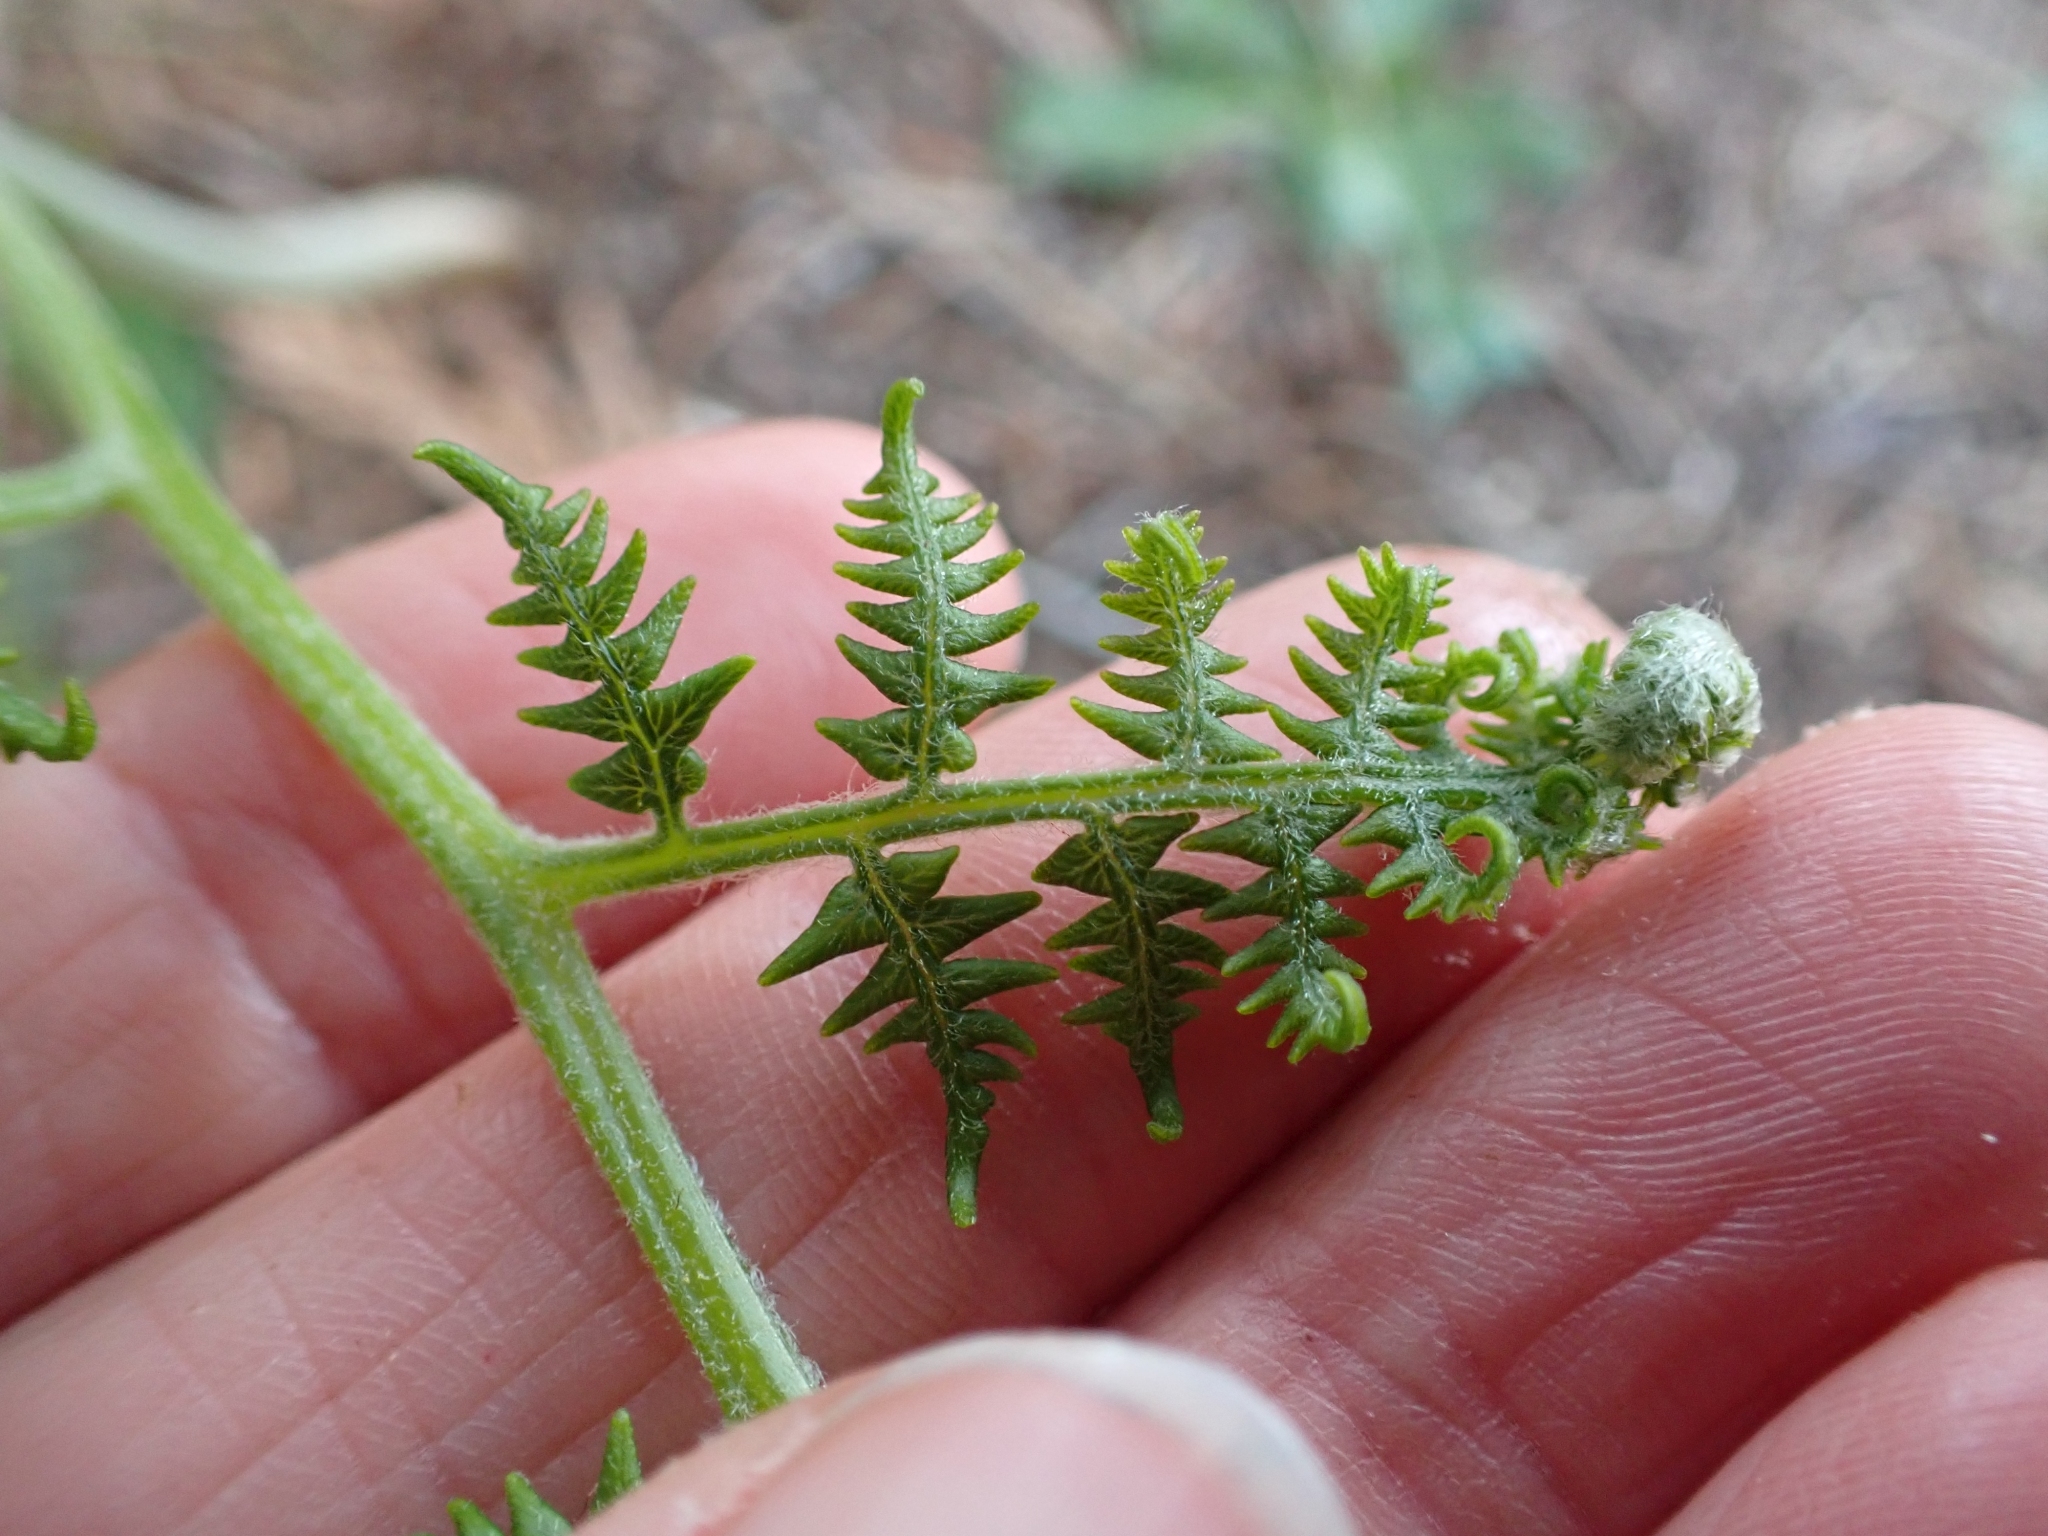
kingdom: Plantae
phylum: Tracheophyta
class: Polypodiopsida
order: Polypodiales
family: Dennstaedtiaceae
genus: Pteridium
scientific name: Pteridium aquilinum
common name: Bracken
